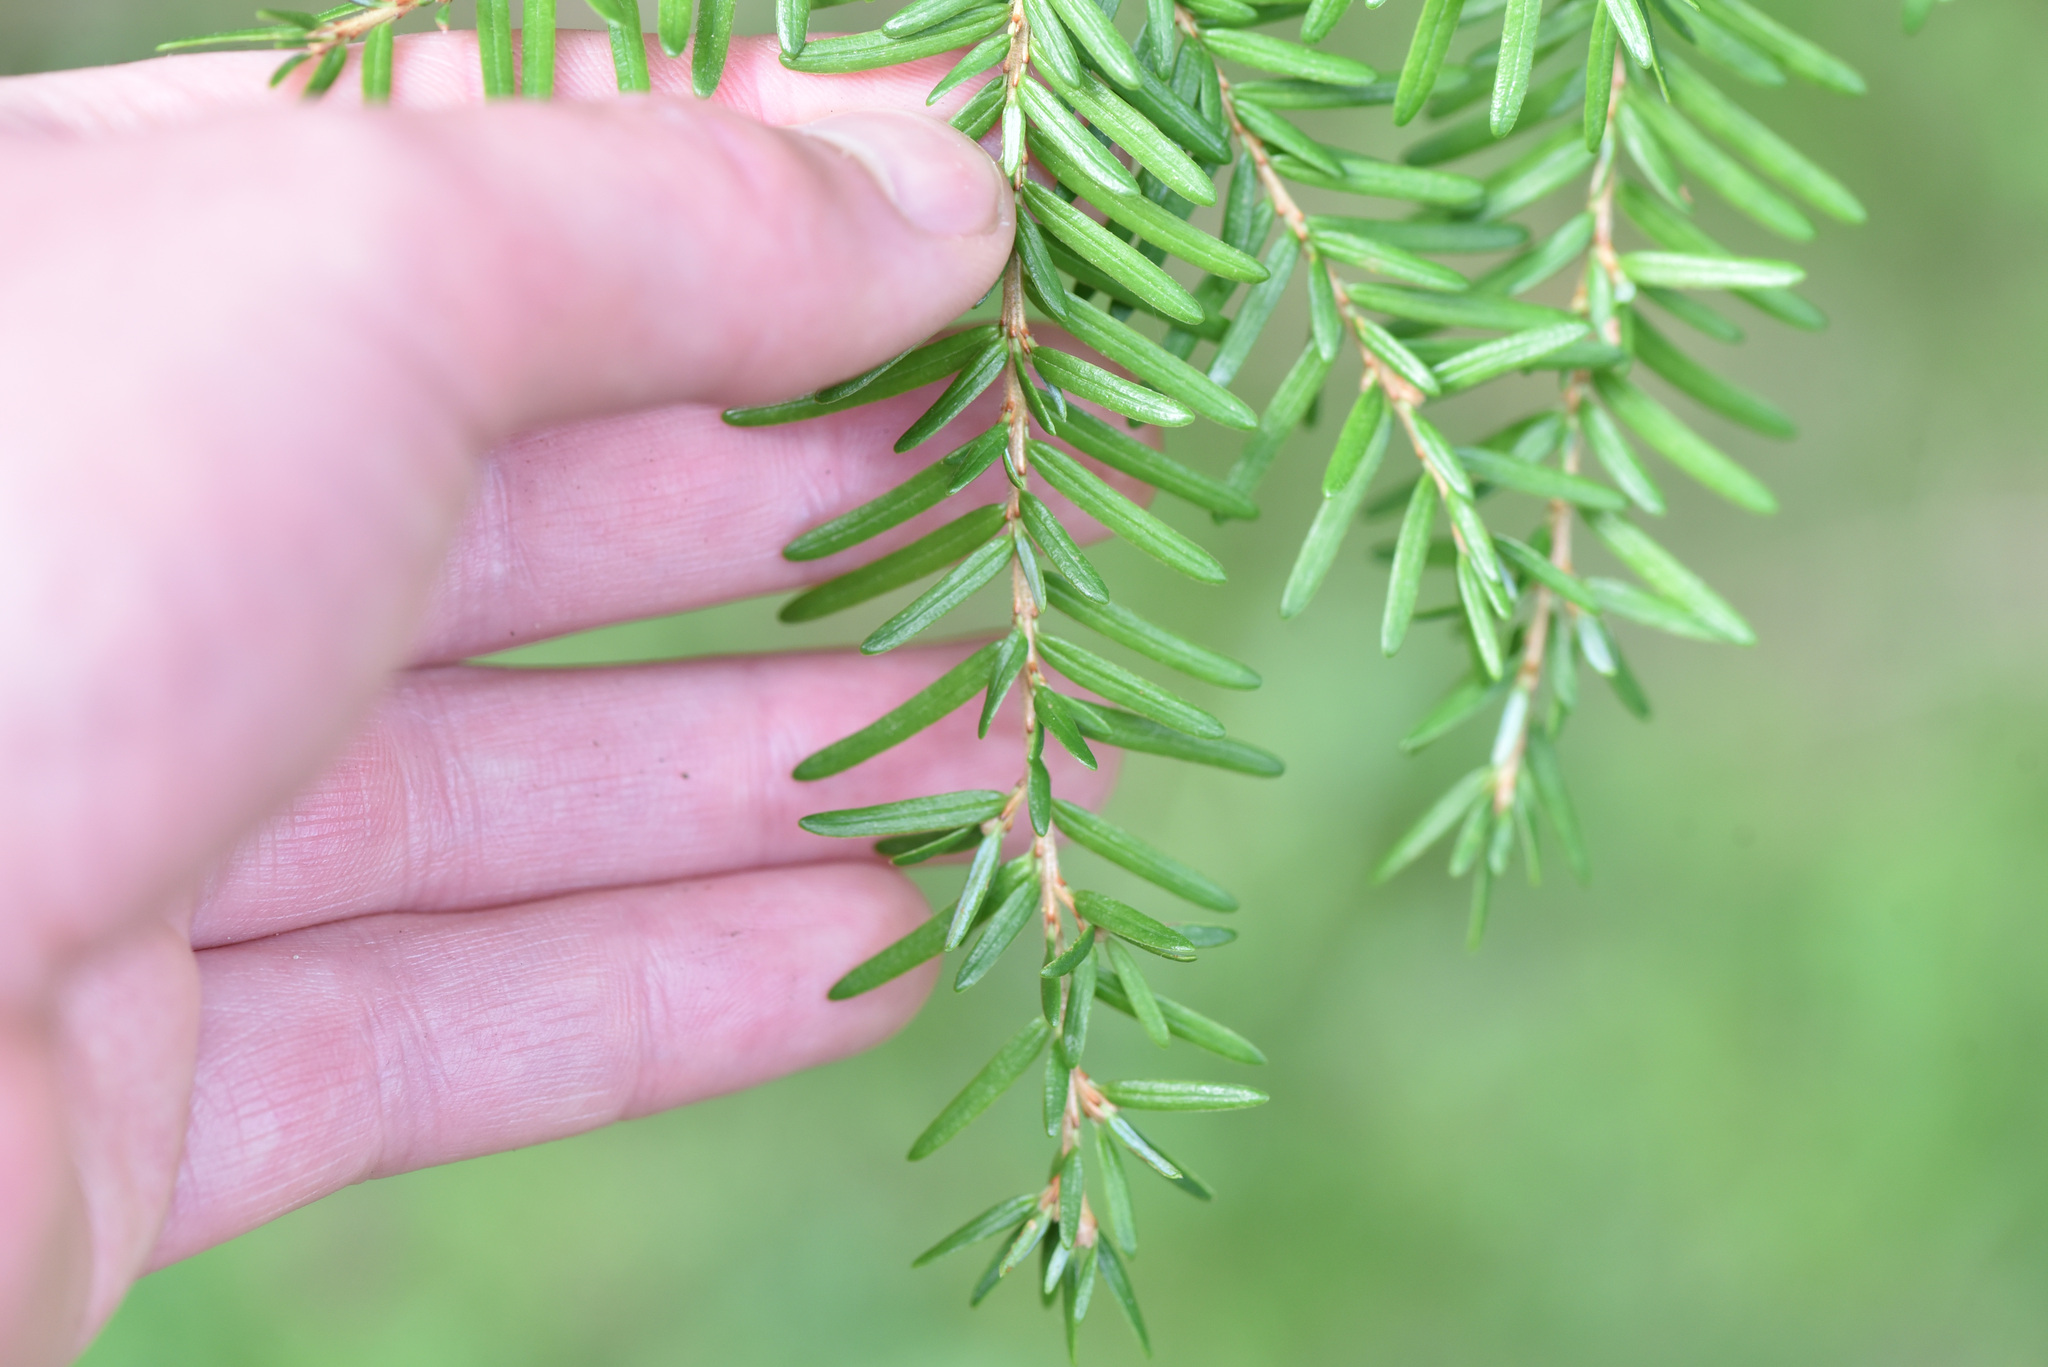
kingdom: Plantae
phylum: Tracheophyta
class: Pinopsida
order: Pinales
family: Pinaceae
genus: Tsuga
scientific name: Tsuga heterophylla
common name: Western hemlock
